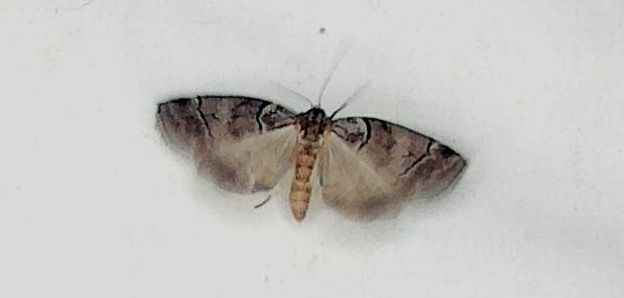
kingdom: Animalia
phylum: Arthropoda
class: Insecta
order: Lepidoptera
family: Geometridae
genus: Corula
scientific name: Corula geometroides
